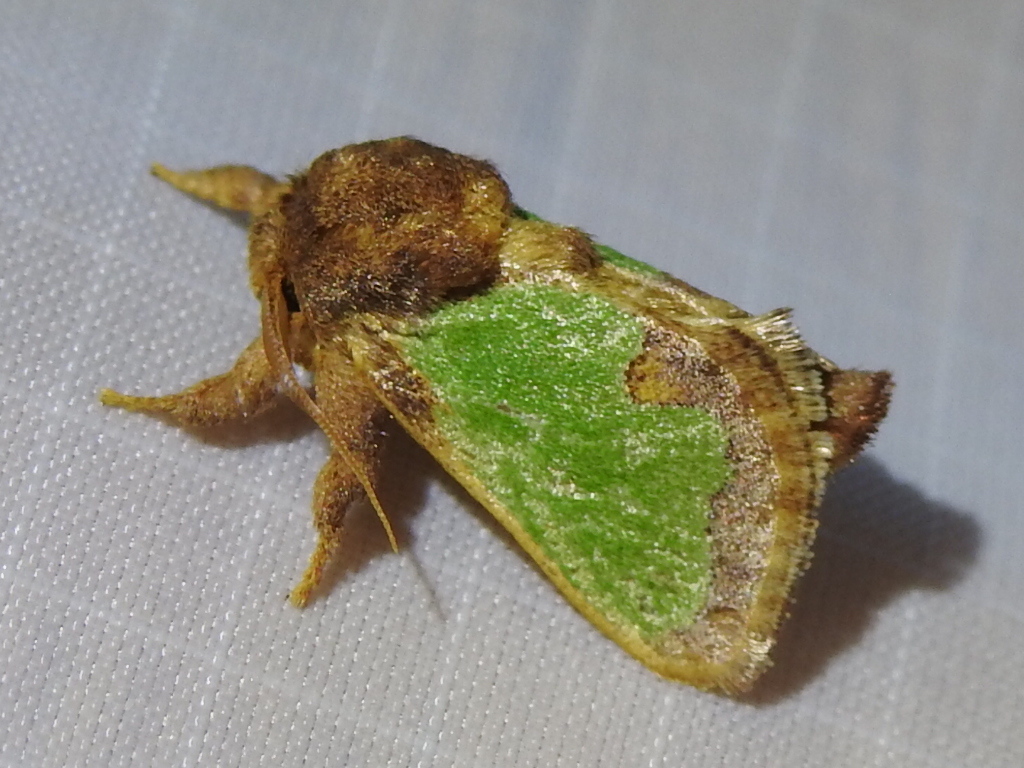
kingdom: Animalia
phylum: Arthropoda
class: Insecta
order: Lepidoptera
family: Limacodidae
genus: Euclea
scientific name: Euclea incisa
